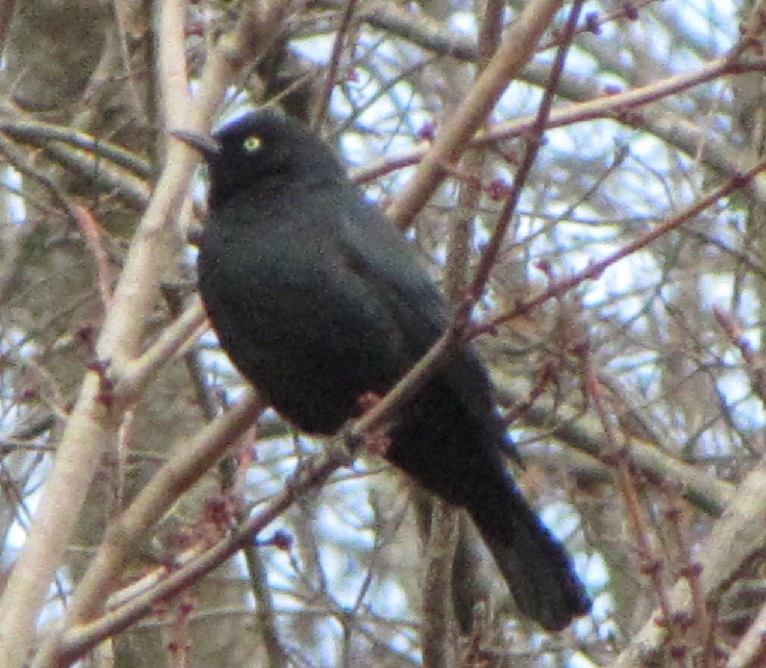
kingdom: Animalia
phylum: Chordata
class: Aves
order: Passeriformes
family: Icteridae
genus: Euphagus
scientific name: Euphagus carolinus
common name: Rusty blackbird
